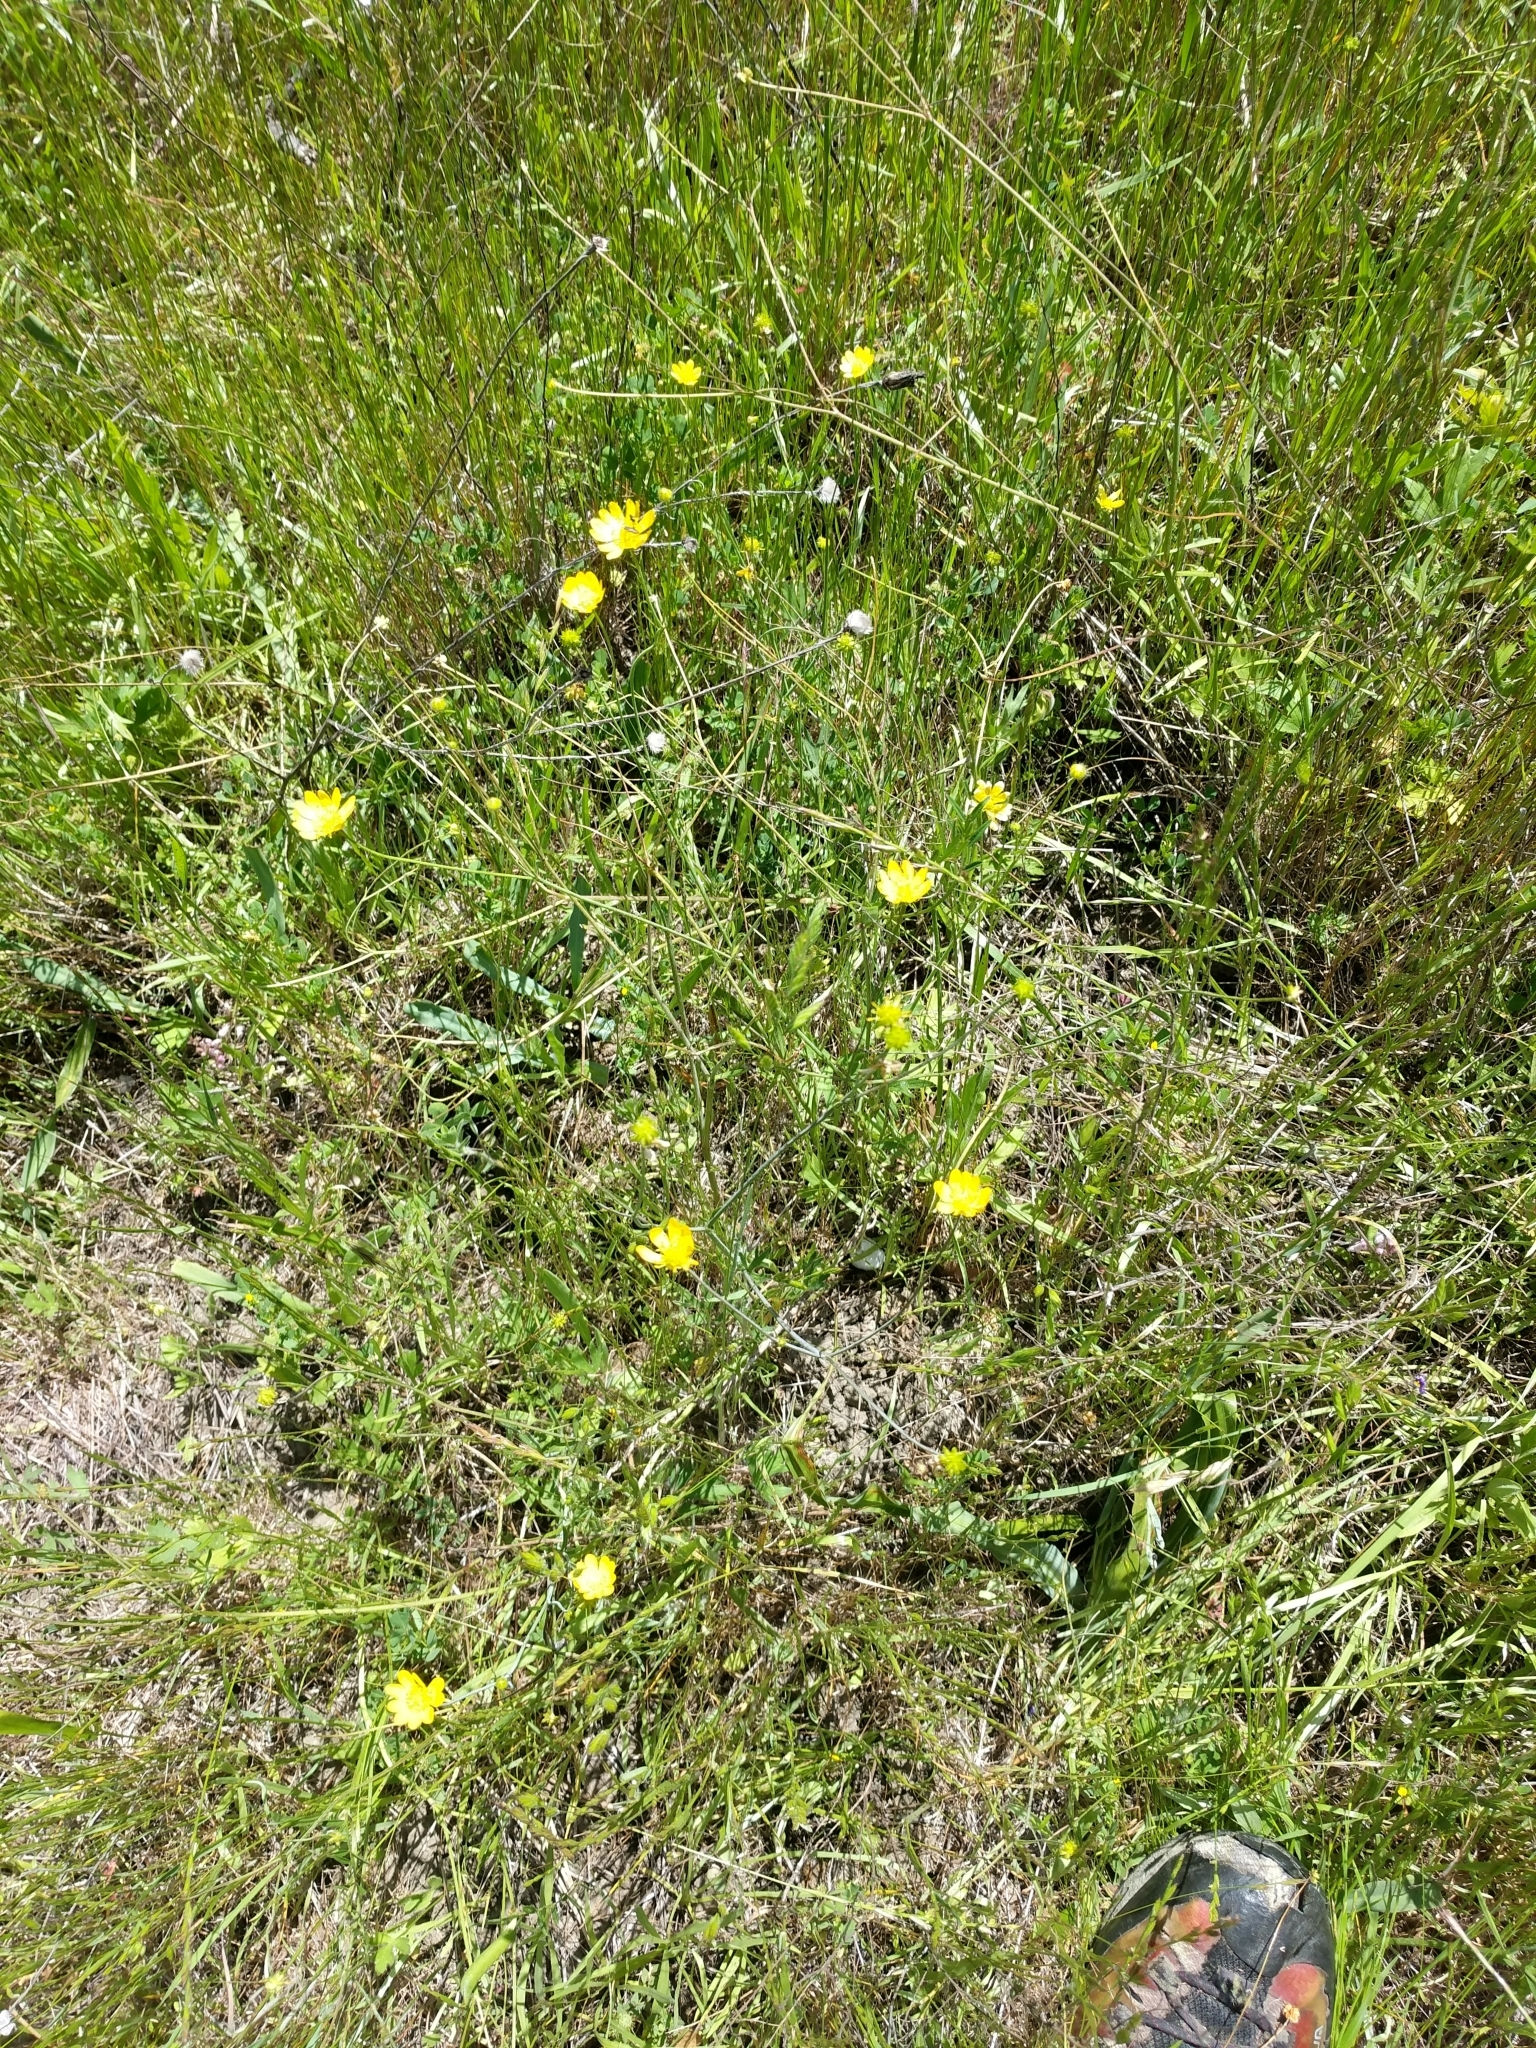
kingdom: Plantae
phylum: Tracheophyta
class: Magnoliopsida
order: Ranunculales
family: Ranunculaceae
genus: Ranunculus
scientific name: Ranunculus californicus
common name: California buttercup
